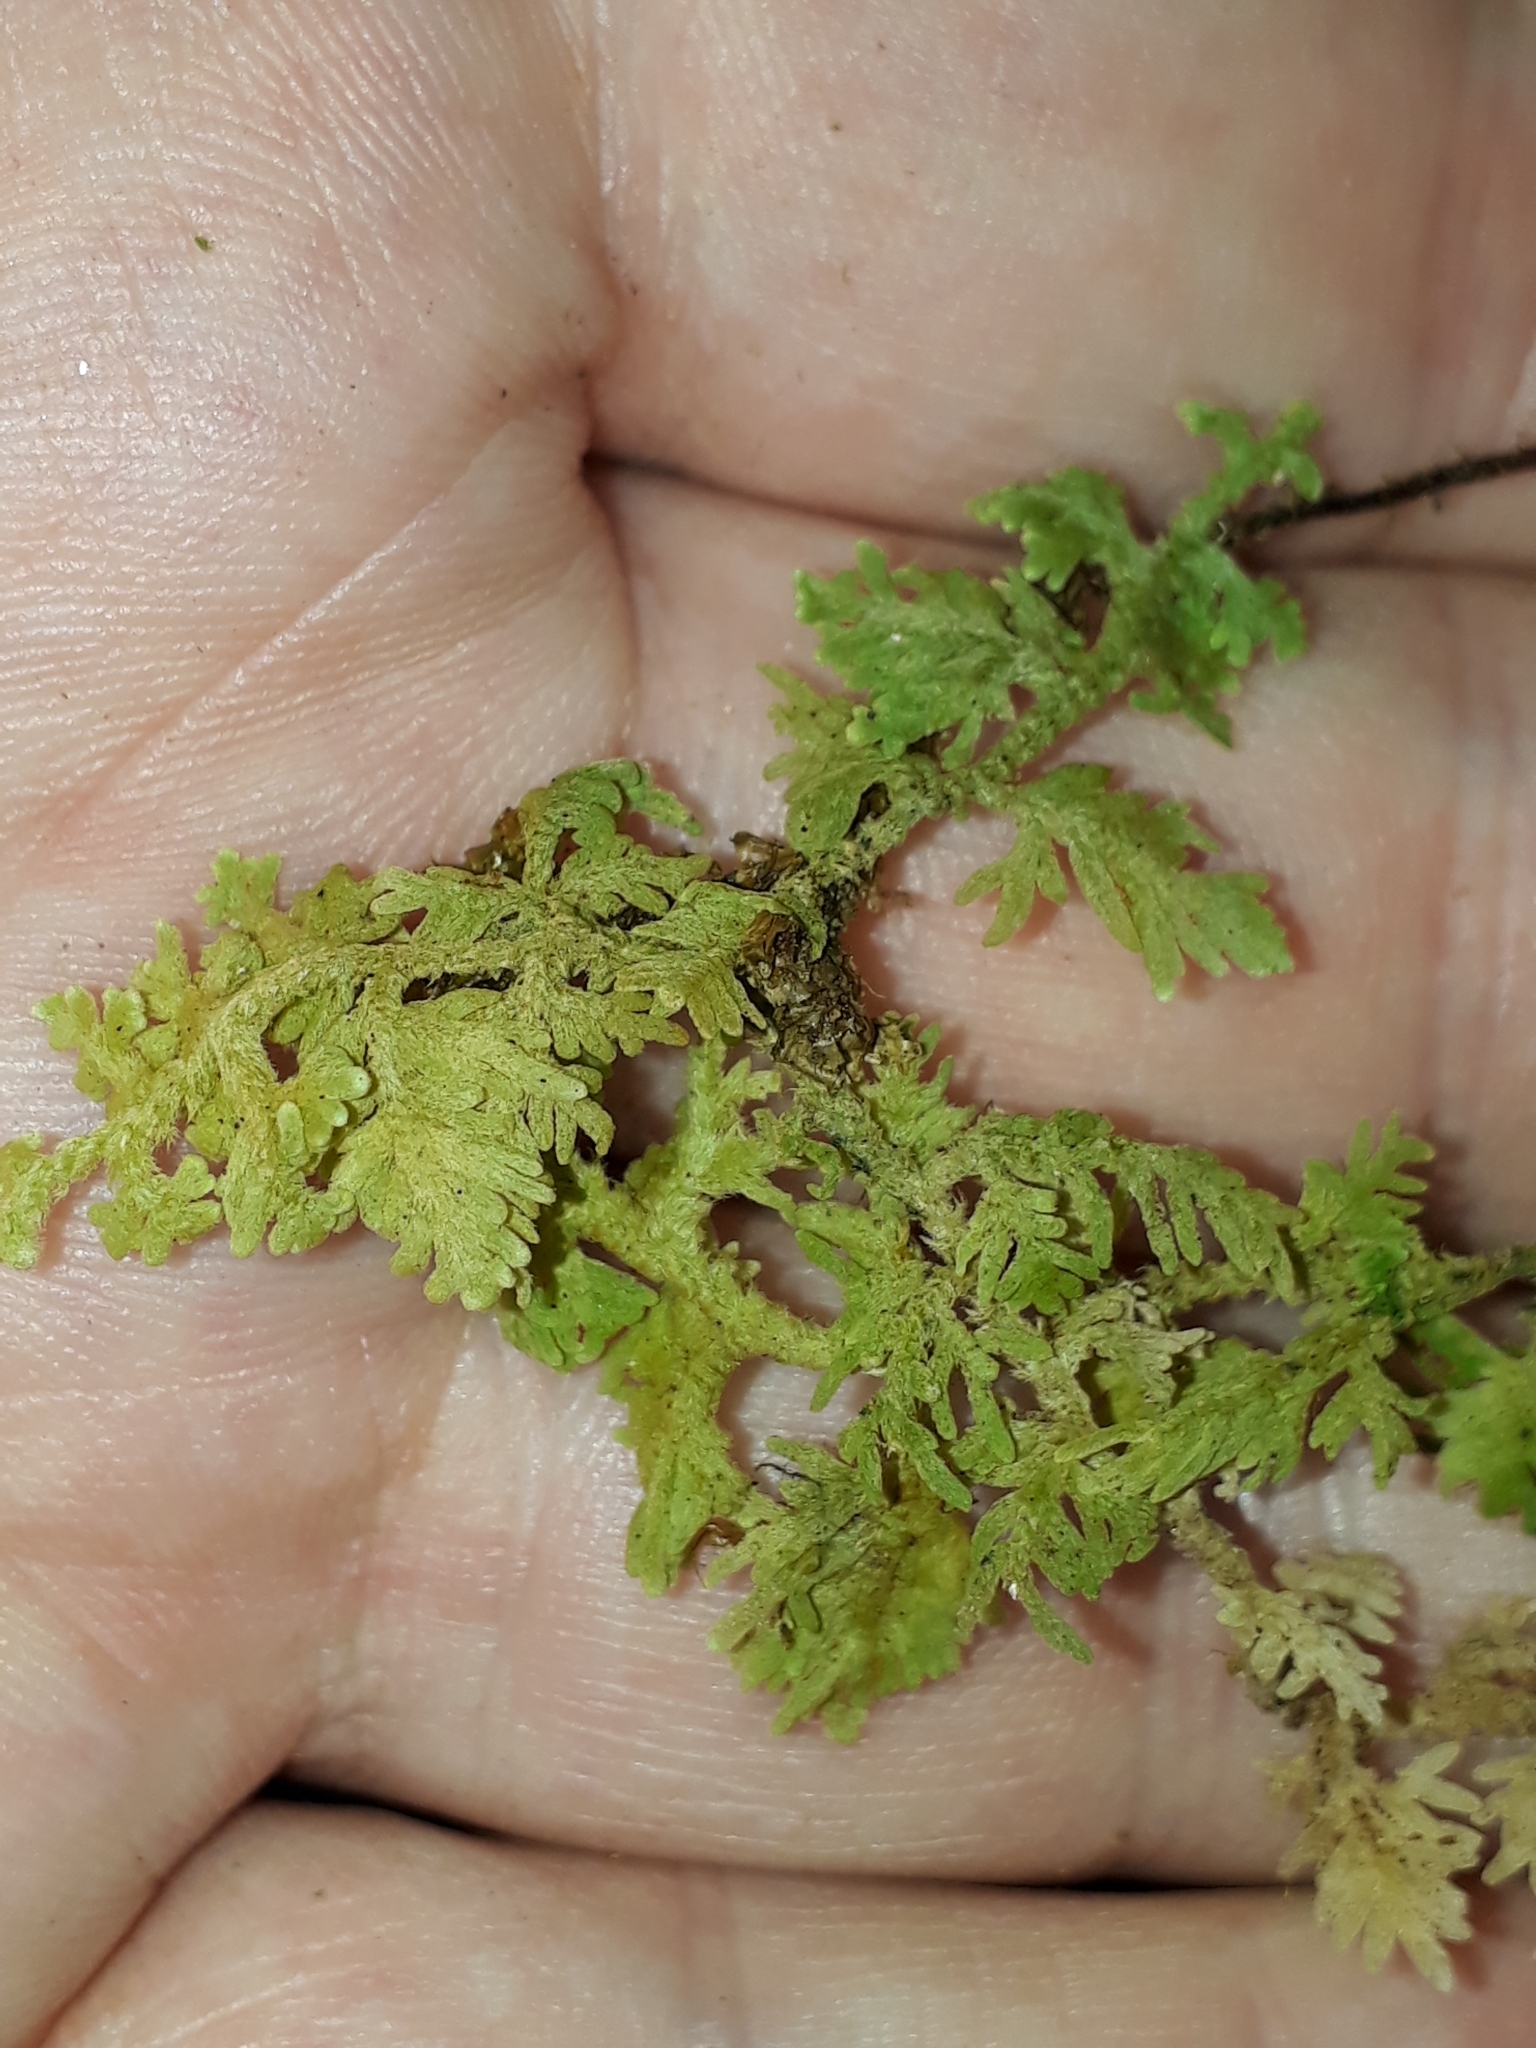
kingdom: Plantae
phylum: Marchantiophyta
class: Jungermanniopsida
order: Jungermanniales
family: Trichocoleaceae
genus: Trichocolea
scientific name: Trichocolea mollissima
